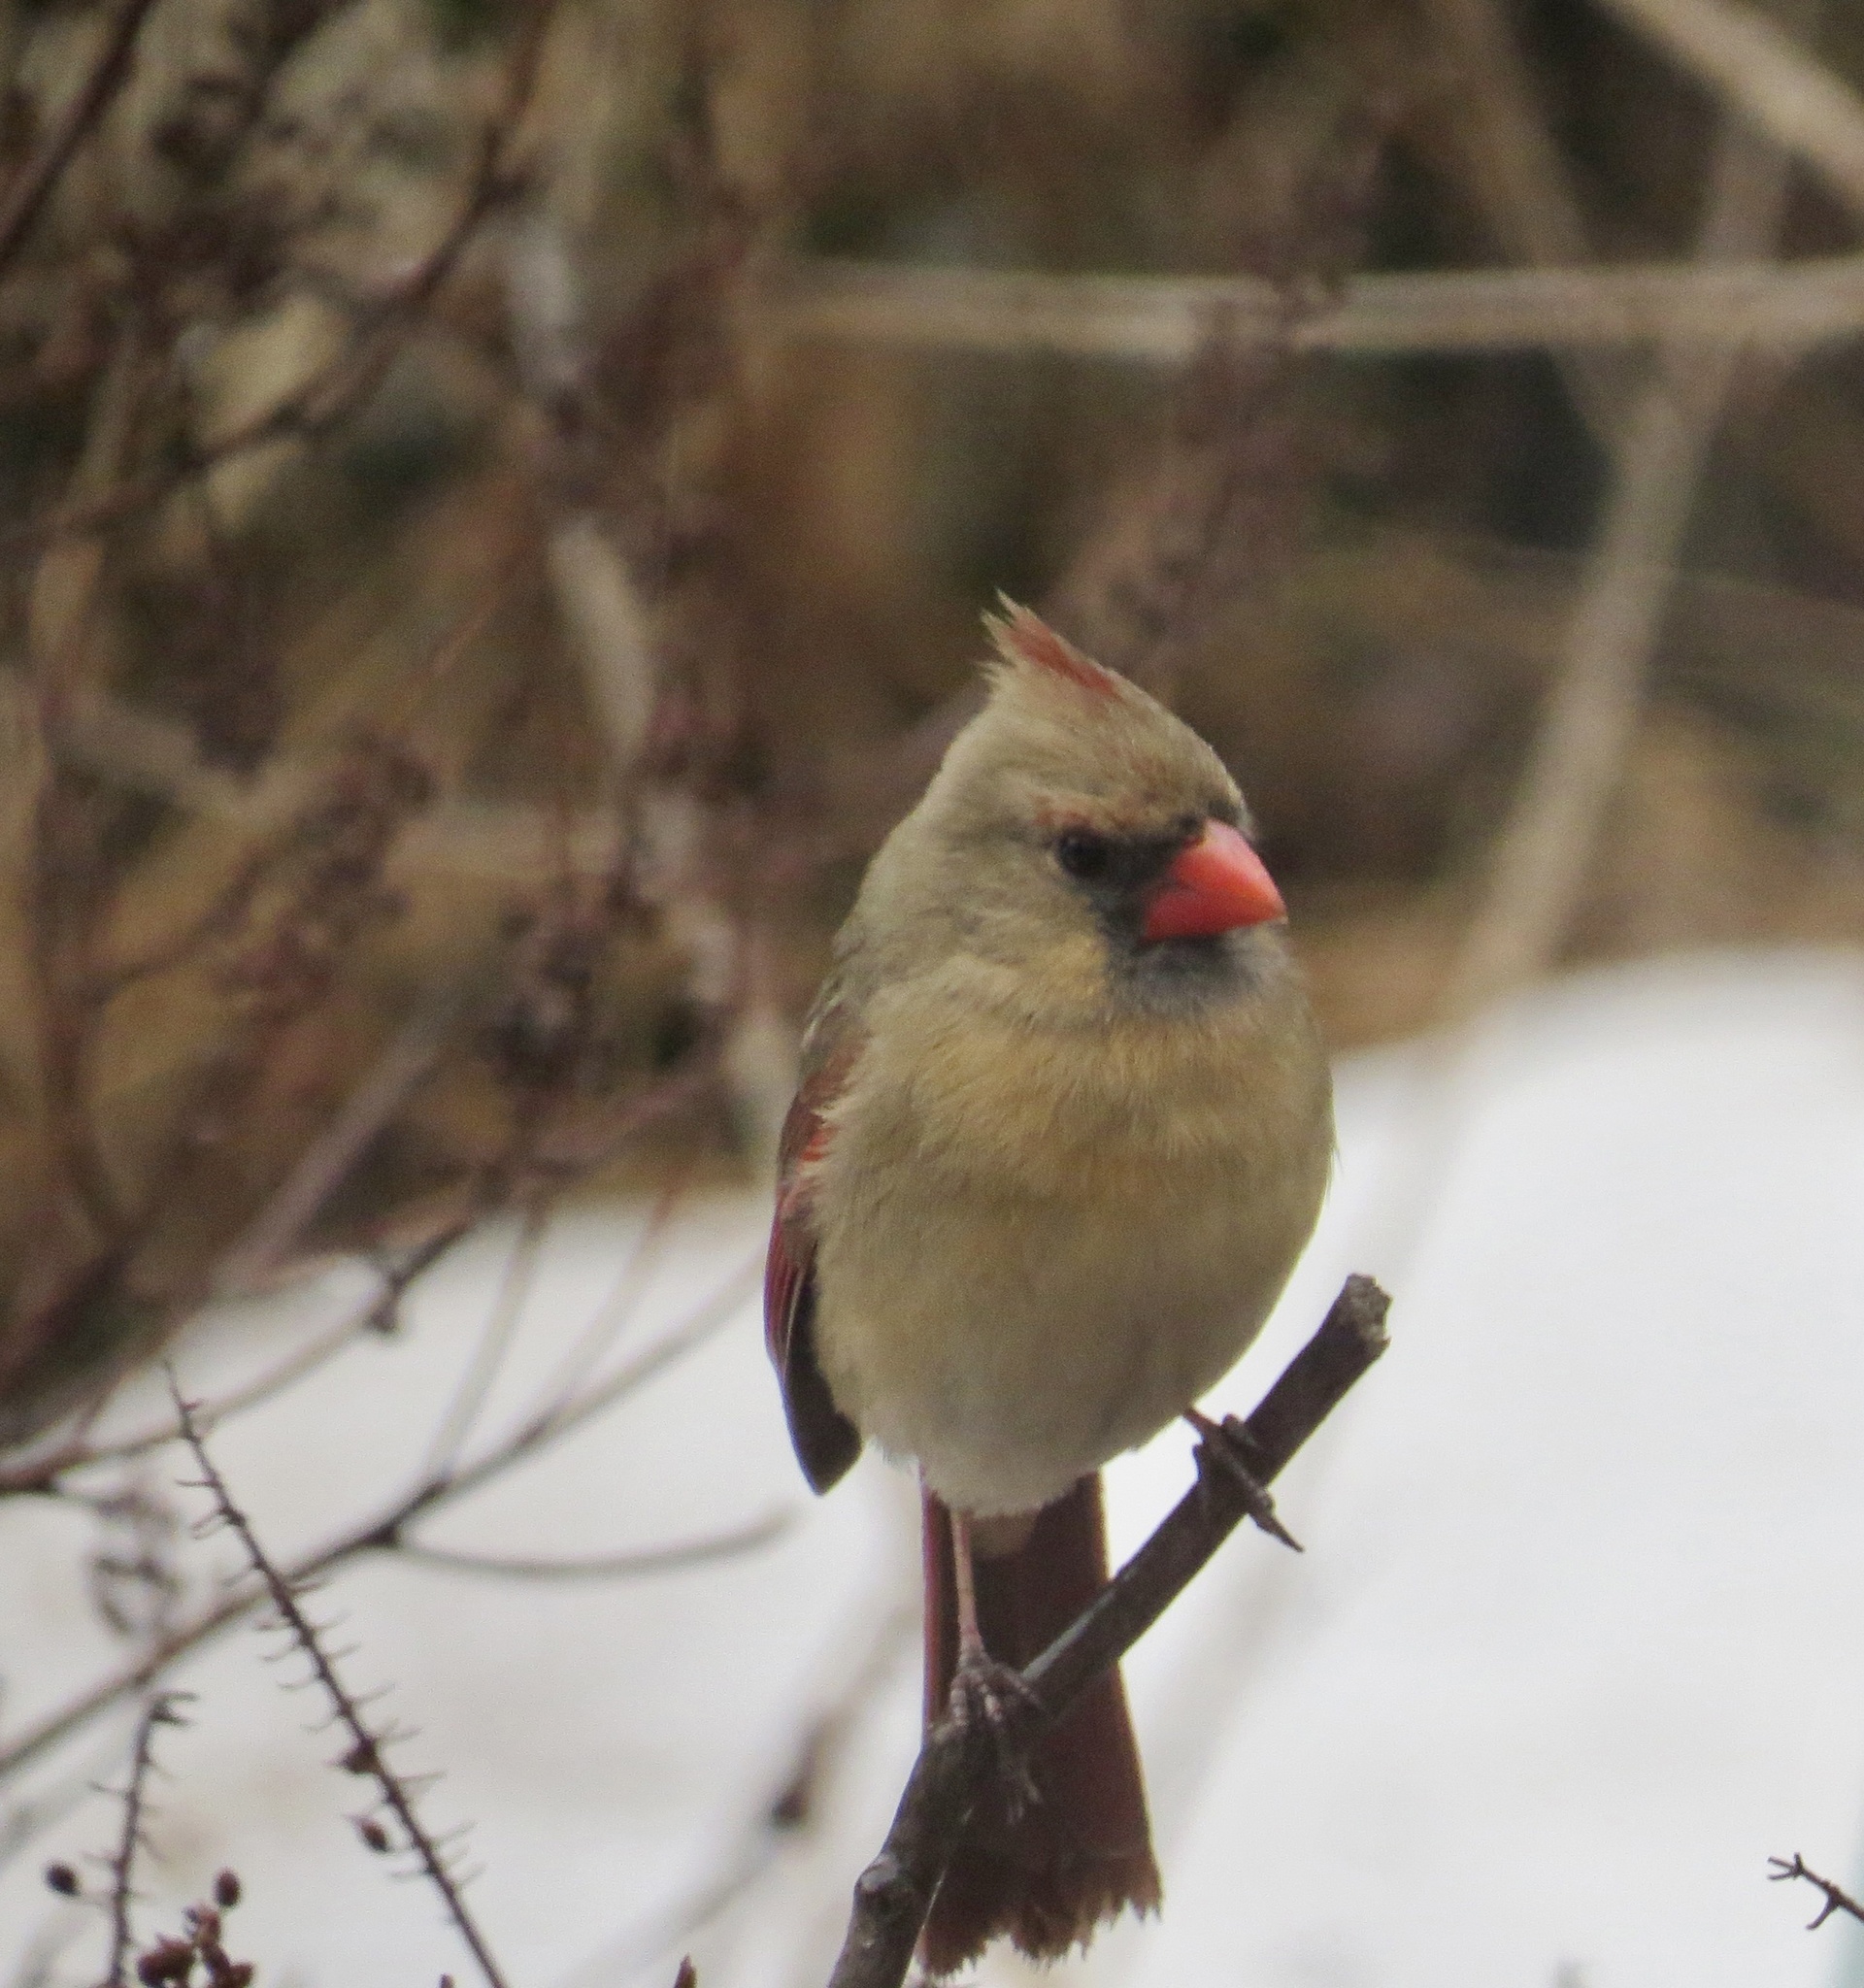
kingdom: Animalia
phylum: Chordata
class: Aves
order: Passeriformes
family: Cardinalidae
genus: Cardinalis
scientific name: Cardinalis cardinalis
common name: Northern cardinal
